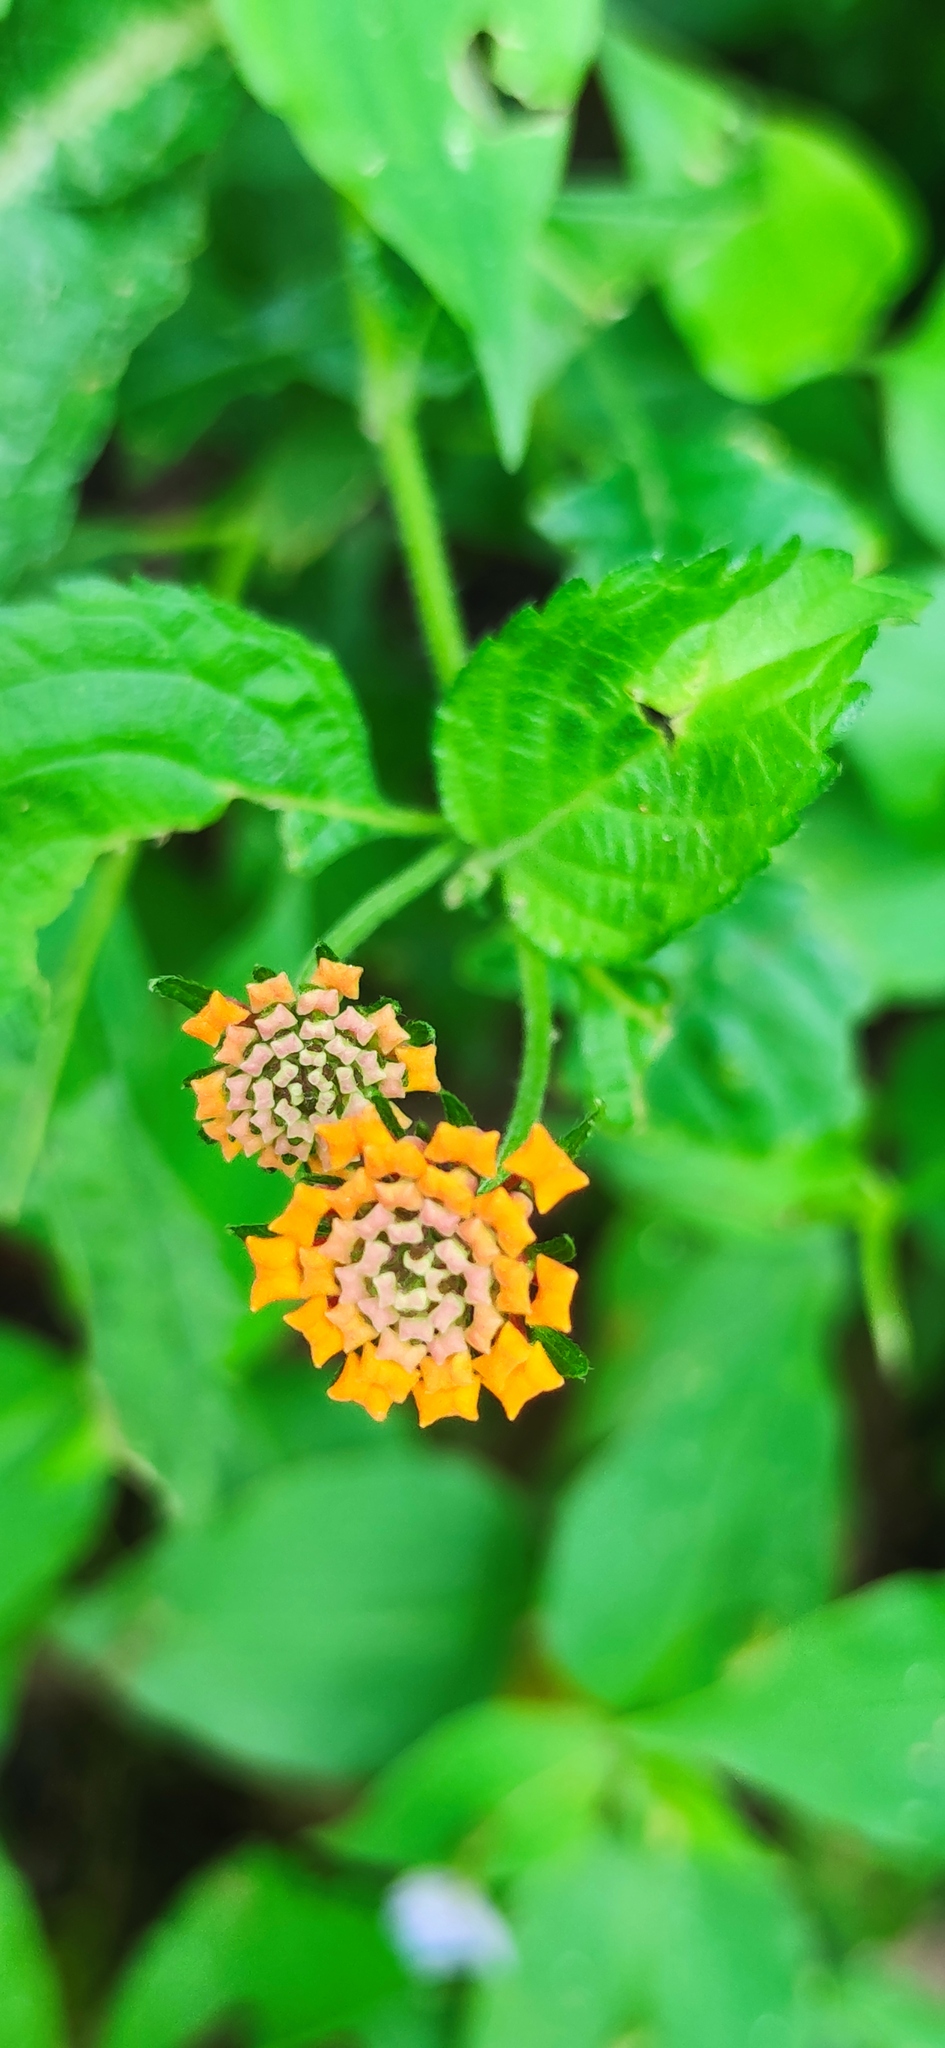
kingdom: Plantae
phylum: Tracheophyta
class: Magnoliopsida
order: Lamiales
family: Verbenaceae
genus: Lantana
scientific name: Lantana camara
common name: Lantana
